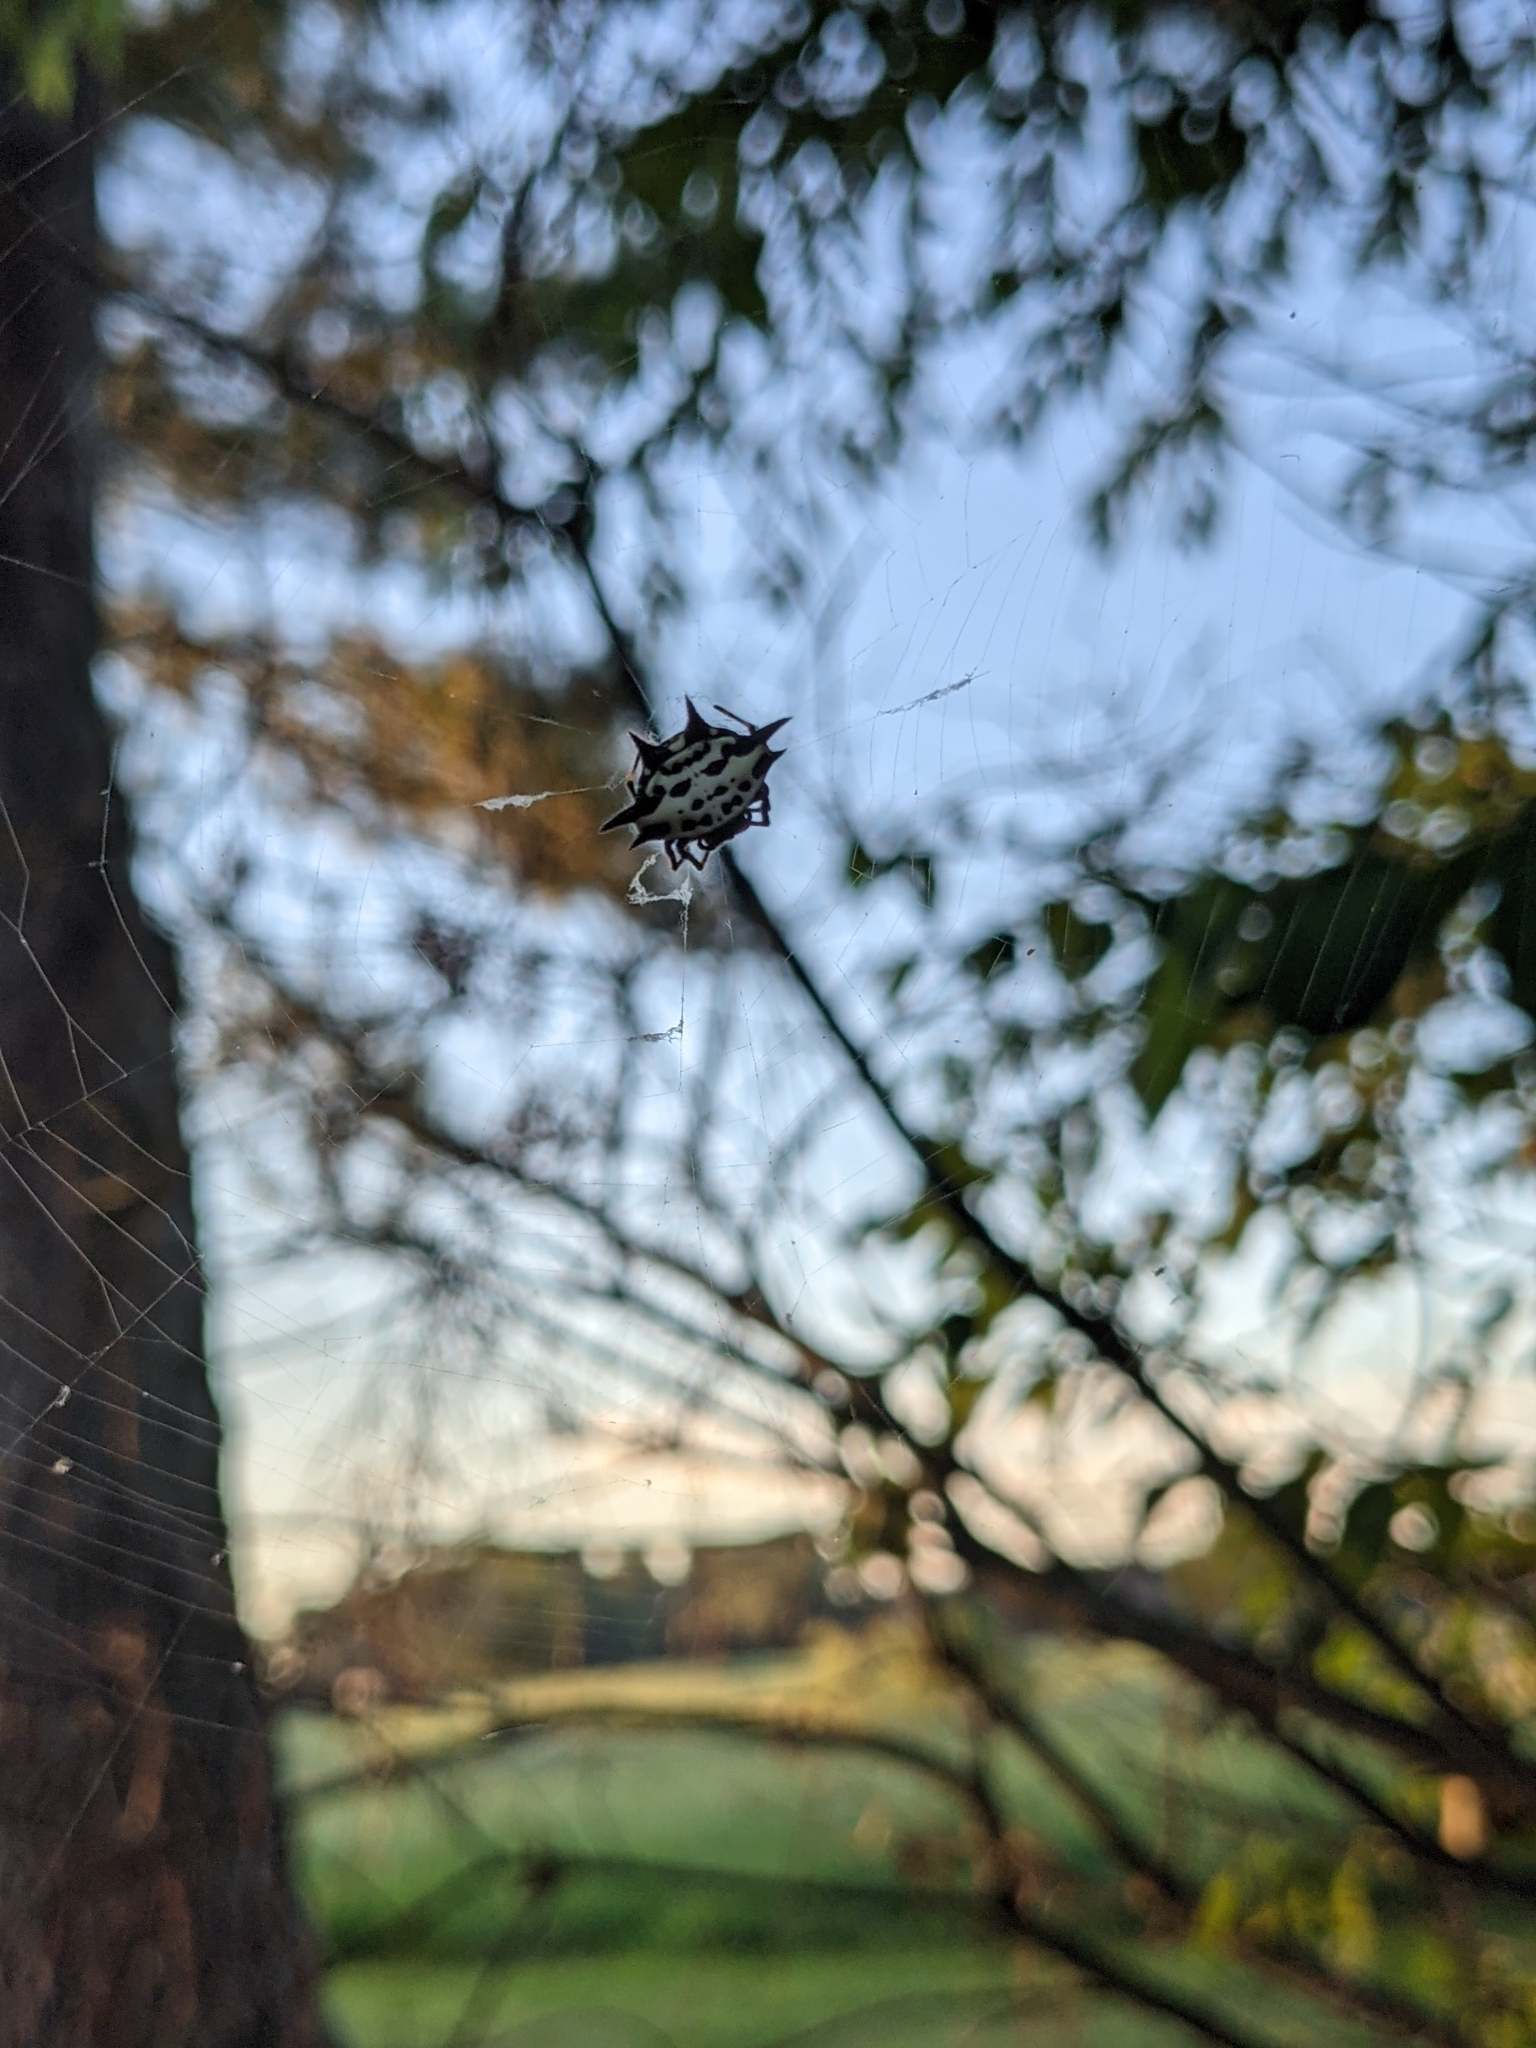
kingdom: Animalia
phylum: Arthropoda
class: Arachnida
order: Araneae
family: Araneidae
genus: Gasteracantha
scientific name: Gasteracantha cancriformis
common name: Orb weavers
